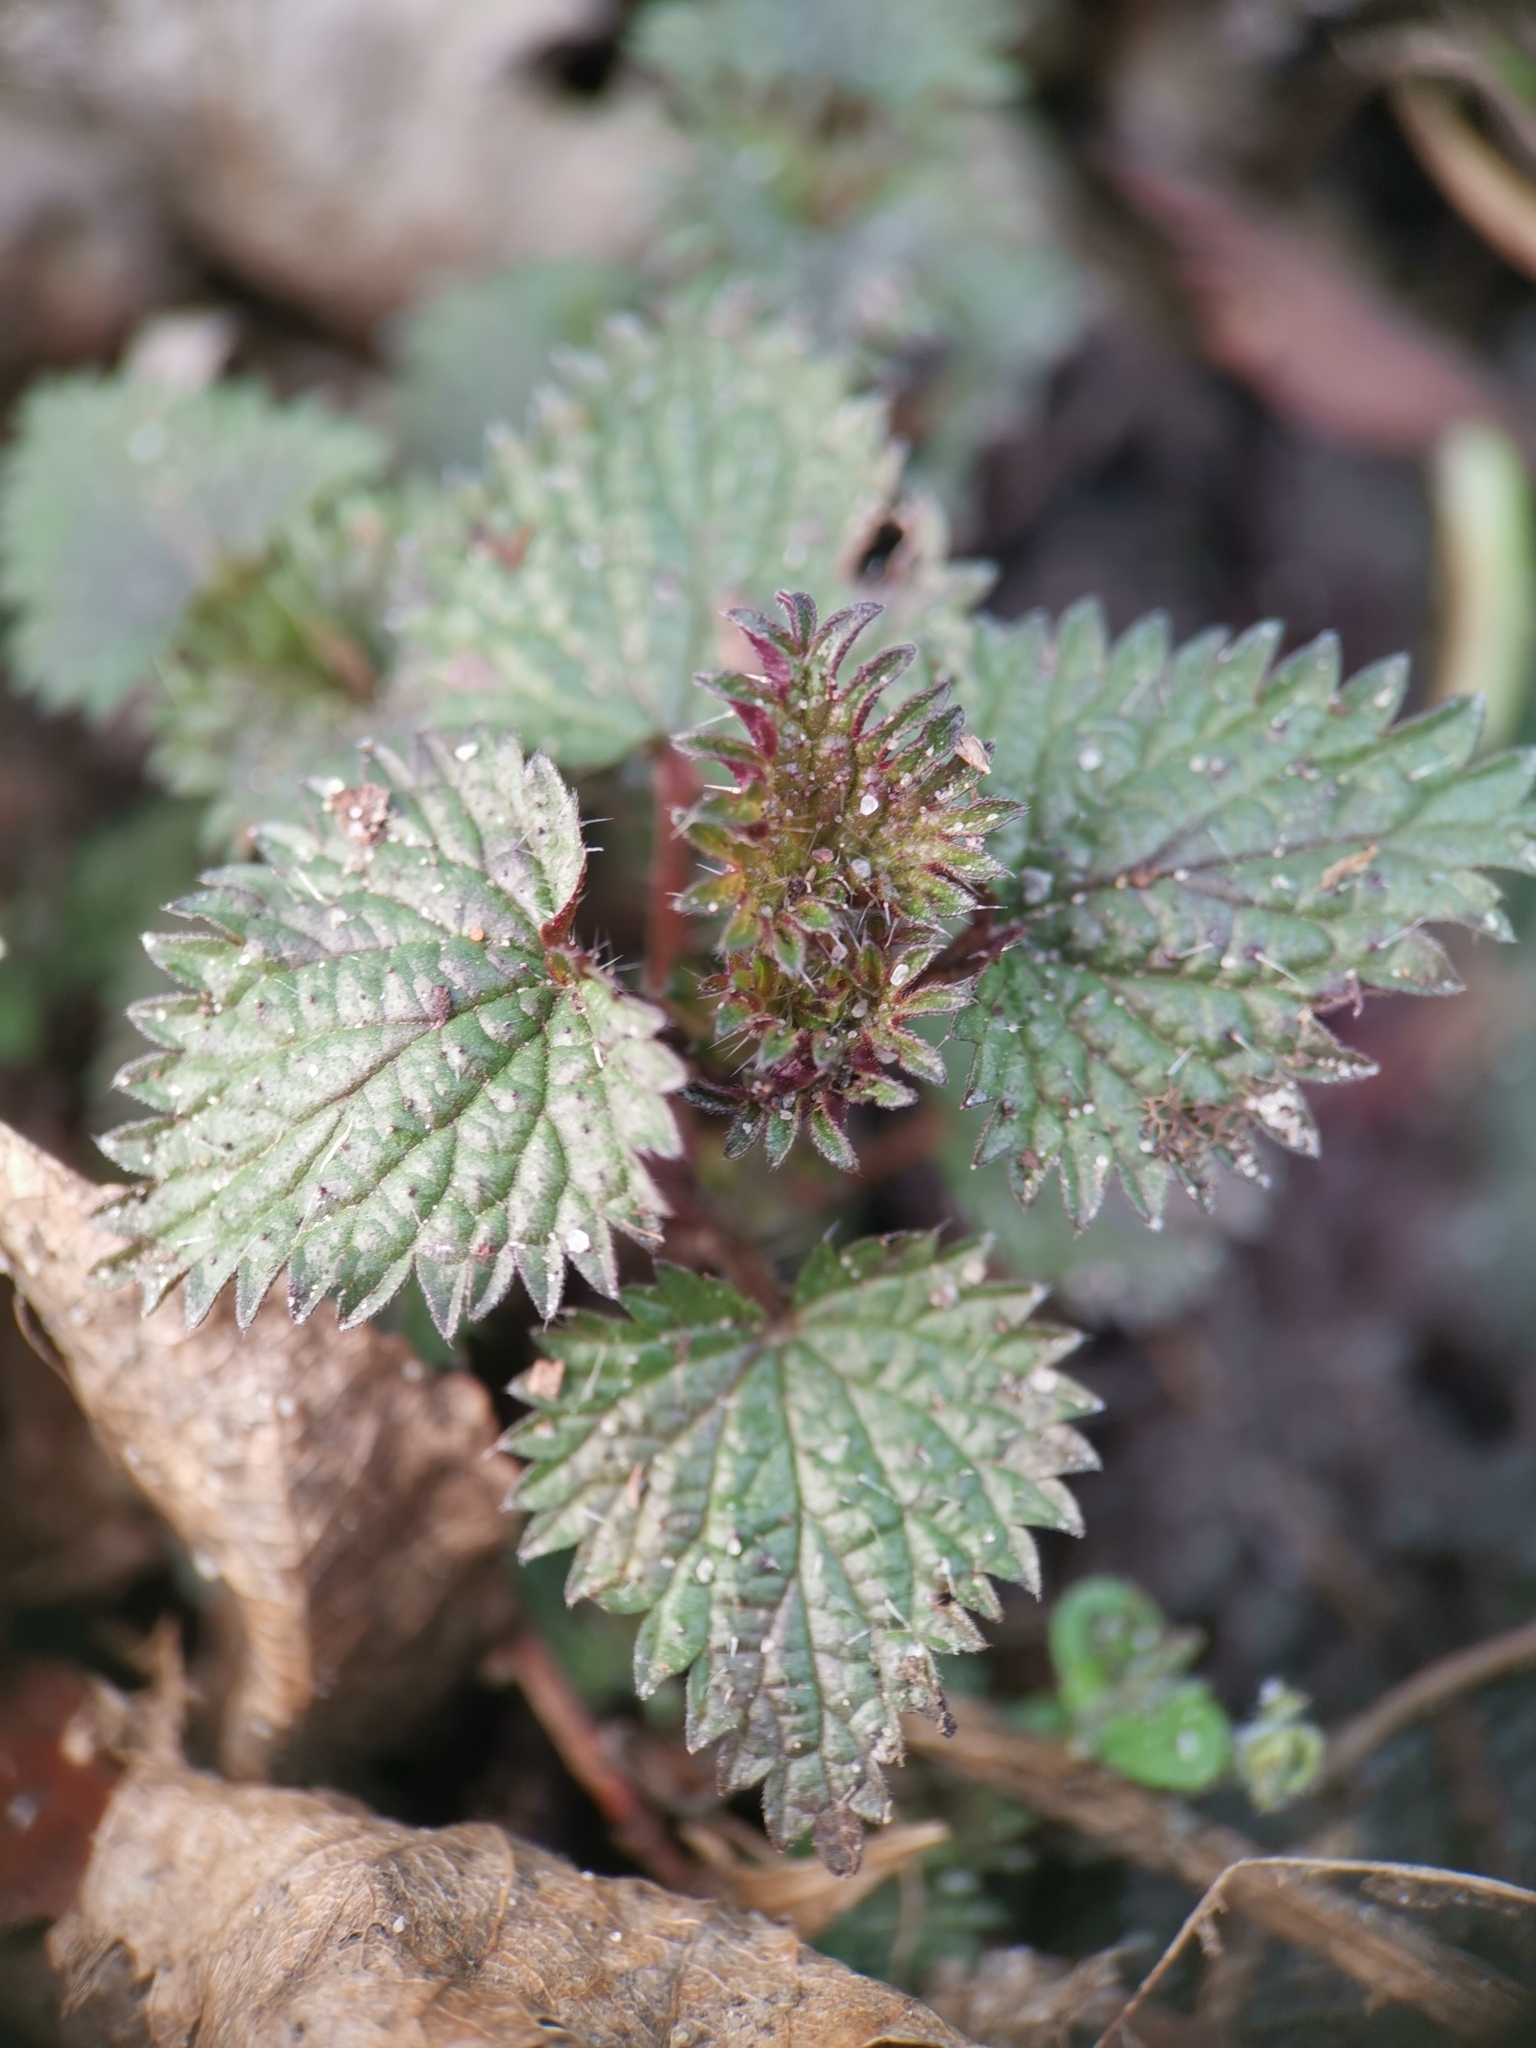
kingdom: Plantae
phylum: Tracheophyta
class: Magnoliopsida
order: Rosales
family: Urticaceae
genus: Urtica
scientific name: Urtica dioica
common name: Common nettle
